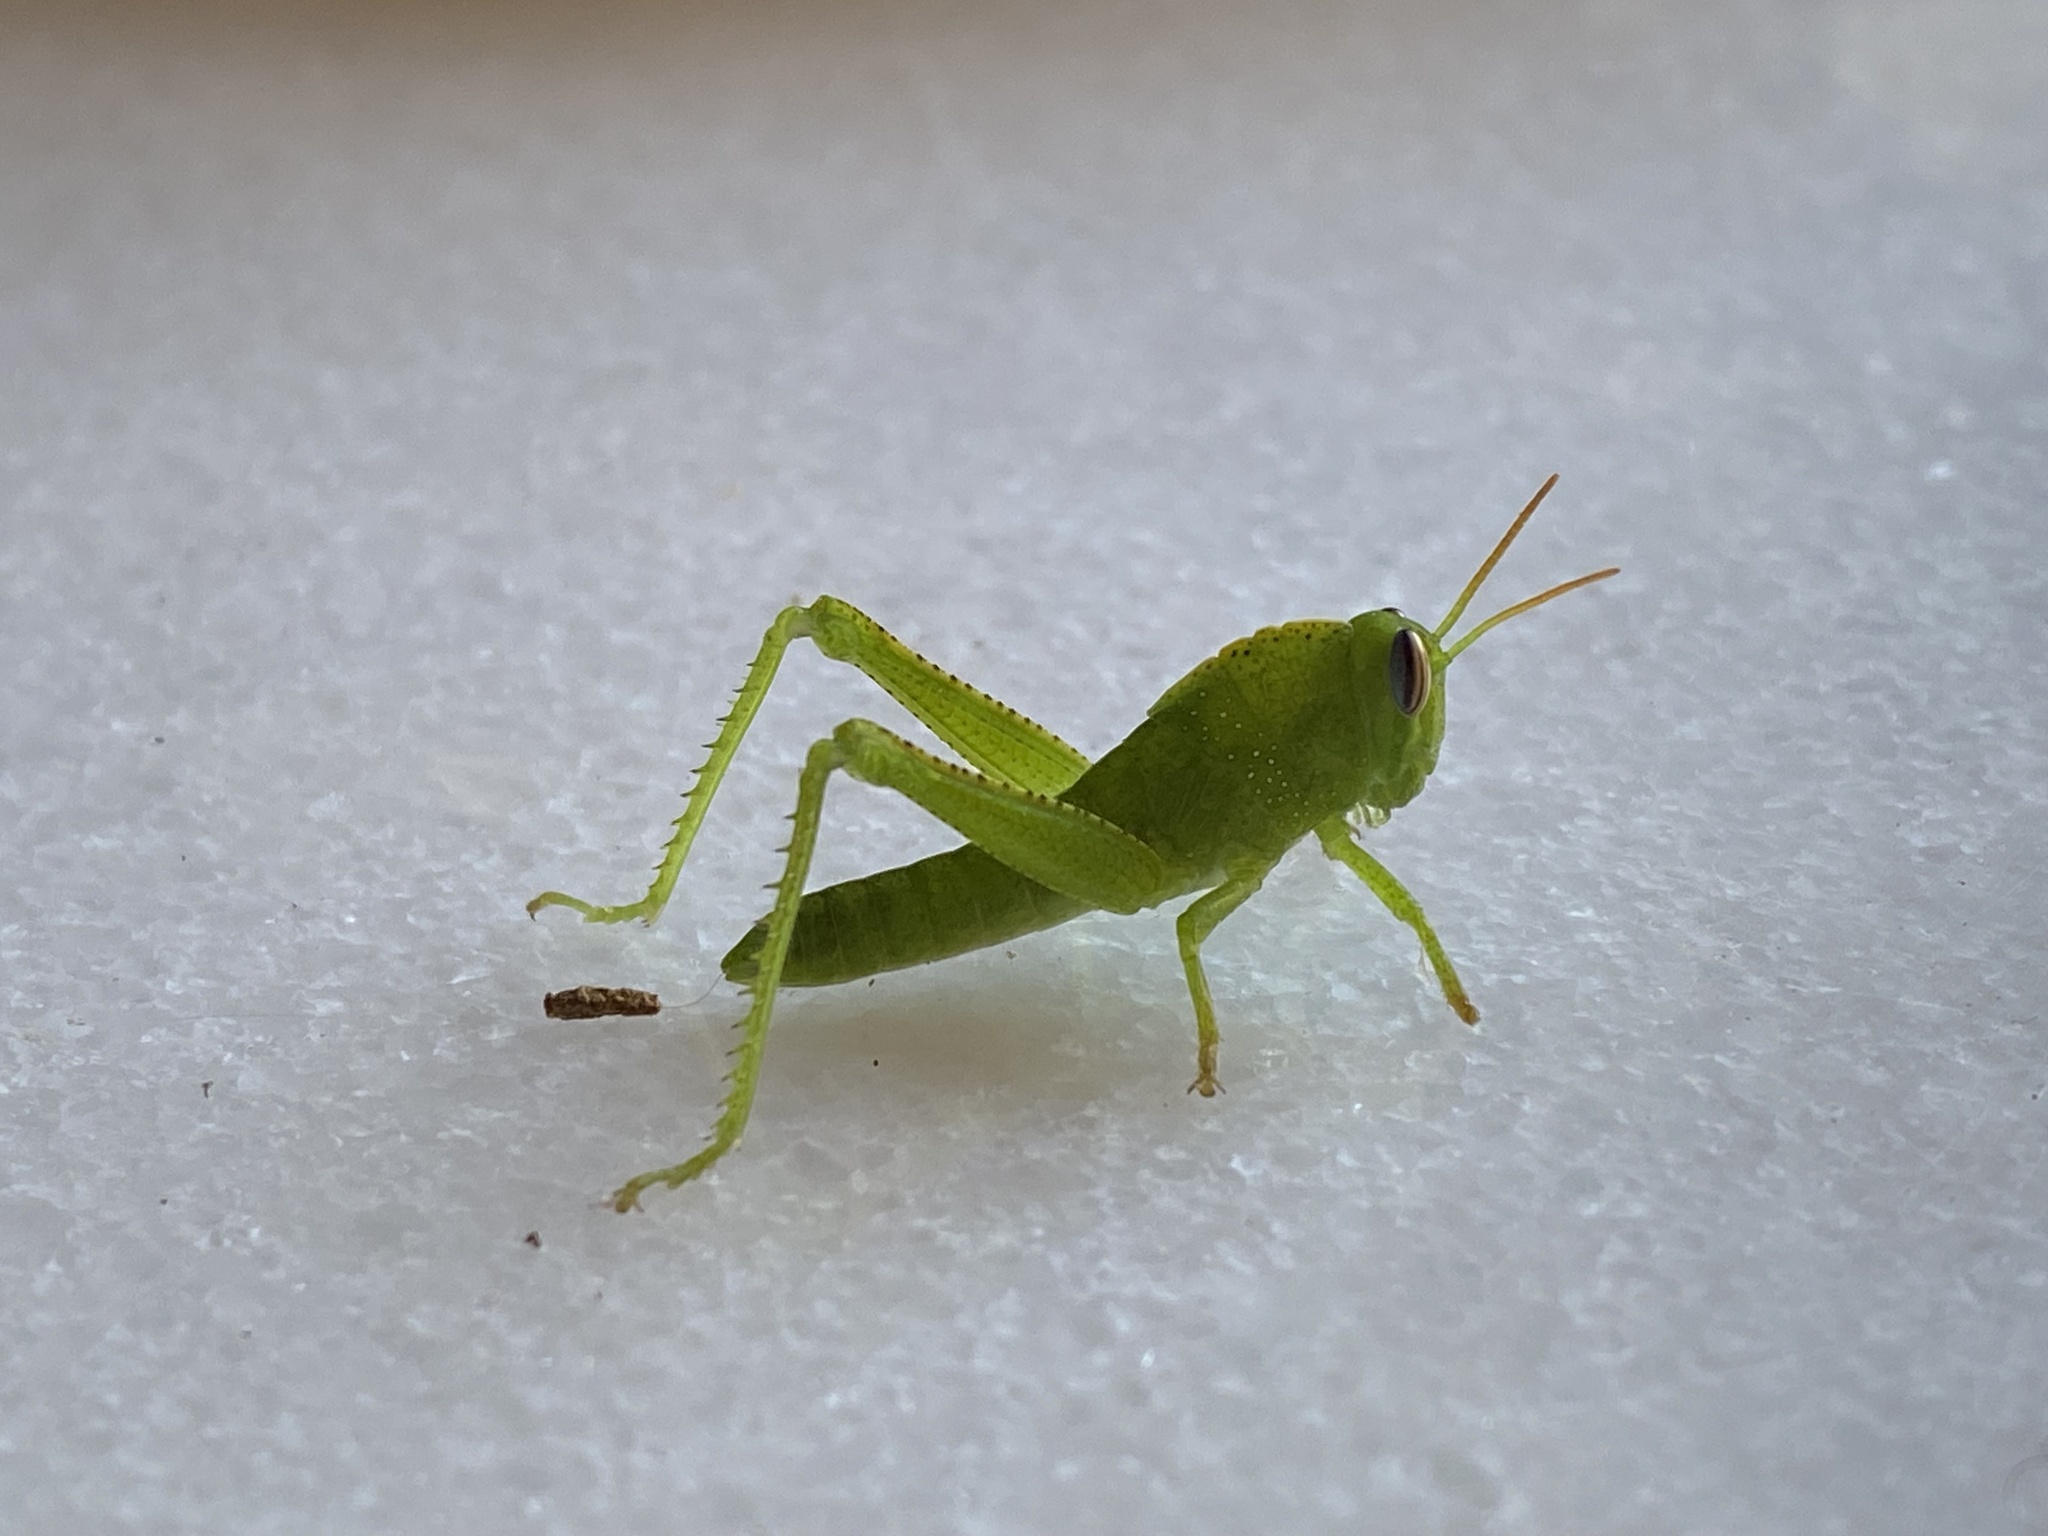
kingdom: Animalia
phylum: Arthropoda
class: Insecta
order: Orthoptera
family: Acrididae
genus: Anacridium
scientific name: Anacridium aegyptium
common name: Egyptian grasshopper
